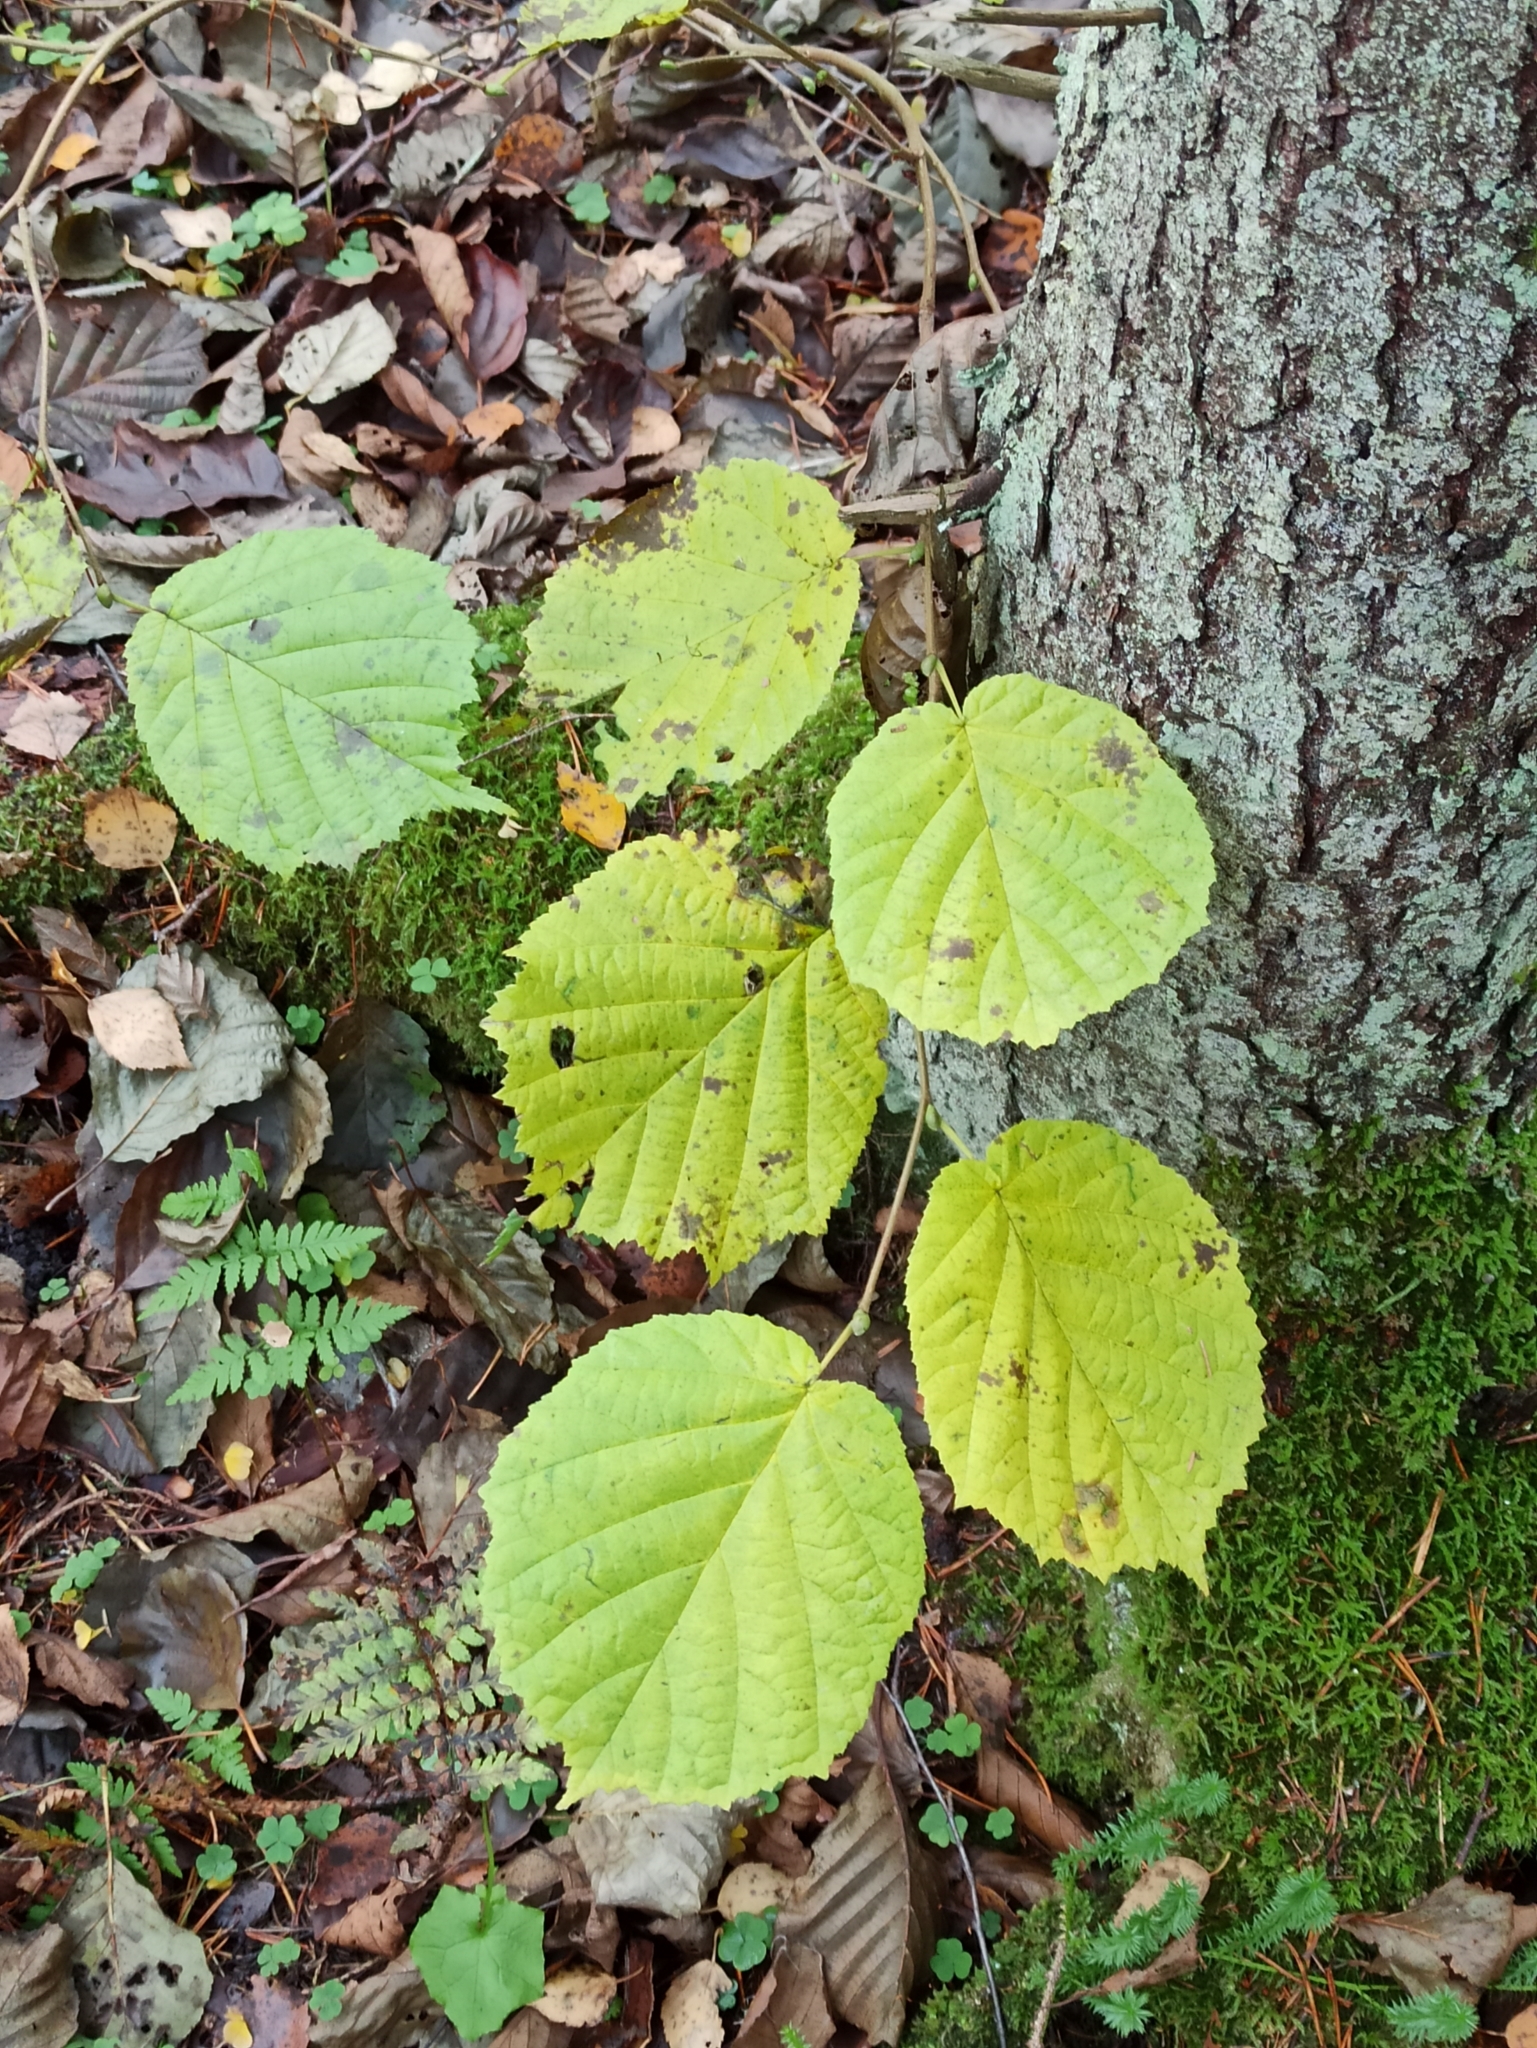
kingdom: Plantae
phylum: Tracheophyta
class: Magnoliopsida
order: Fagales
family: Betulaceae
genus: Corylus
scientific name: Corylus avellana
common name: European hazel
